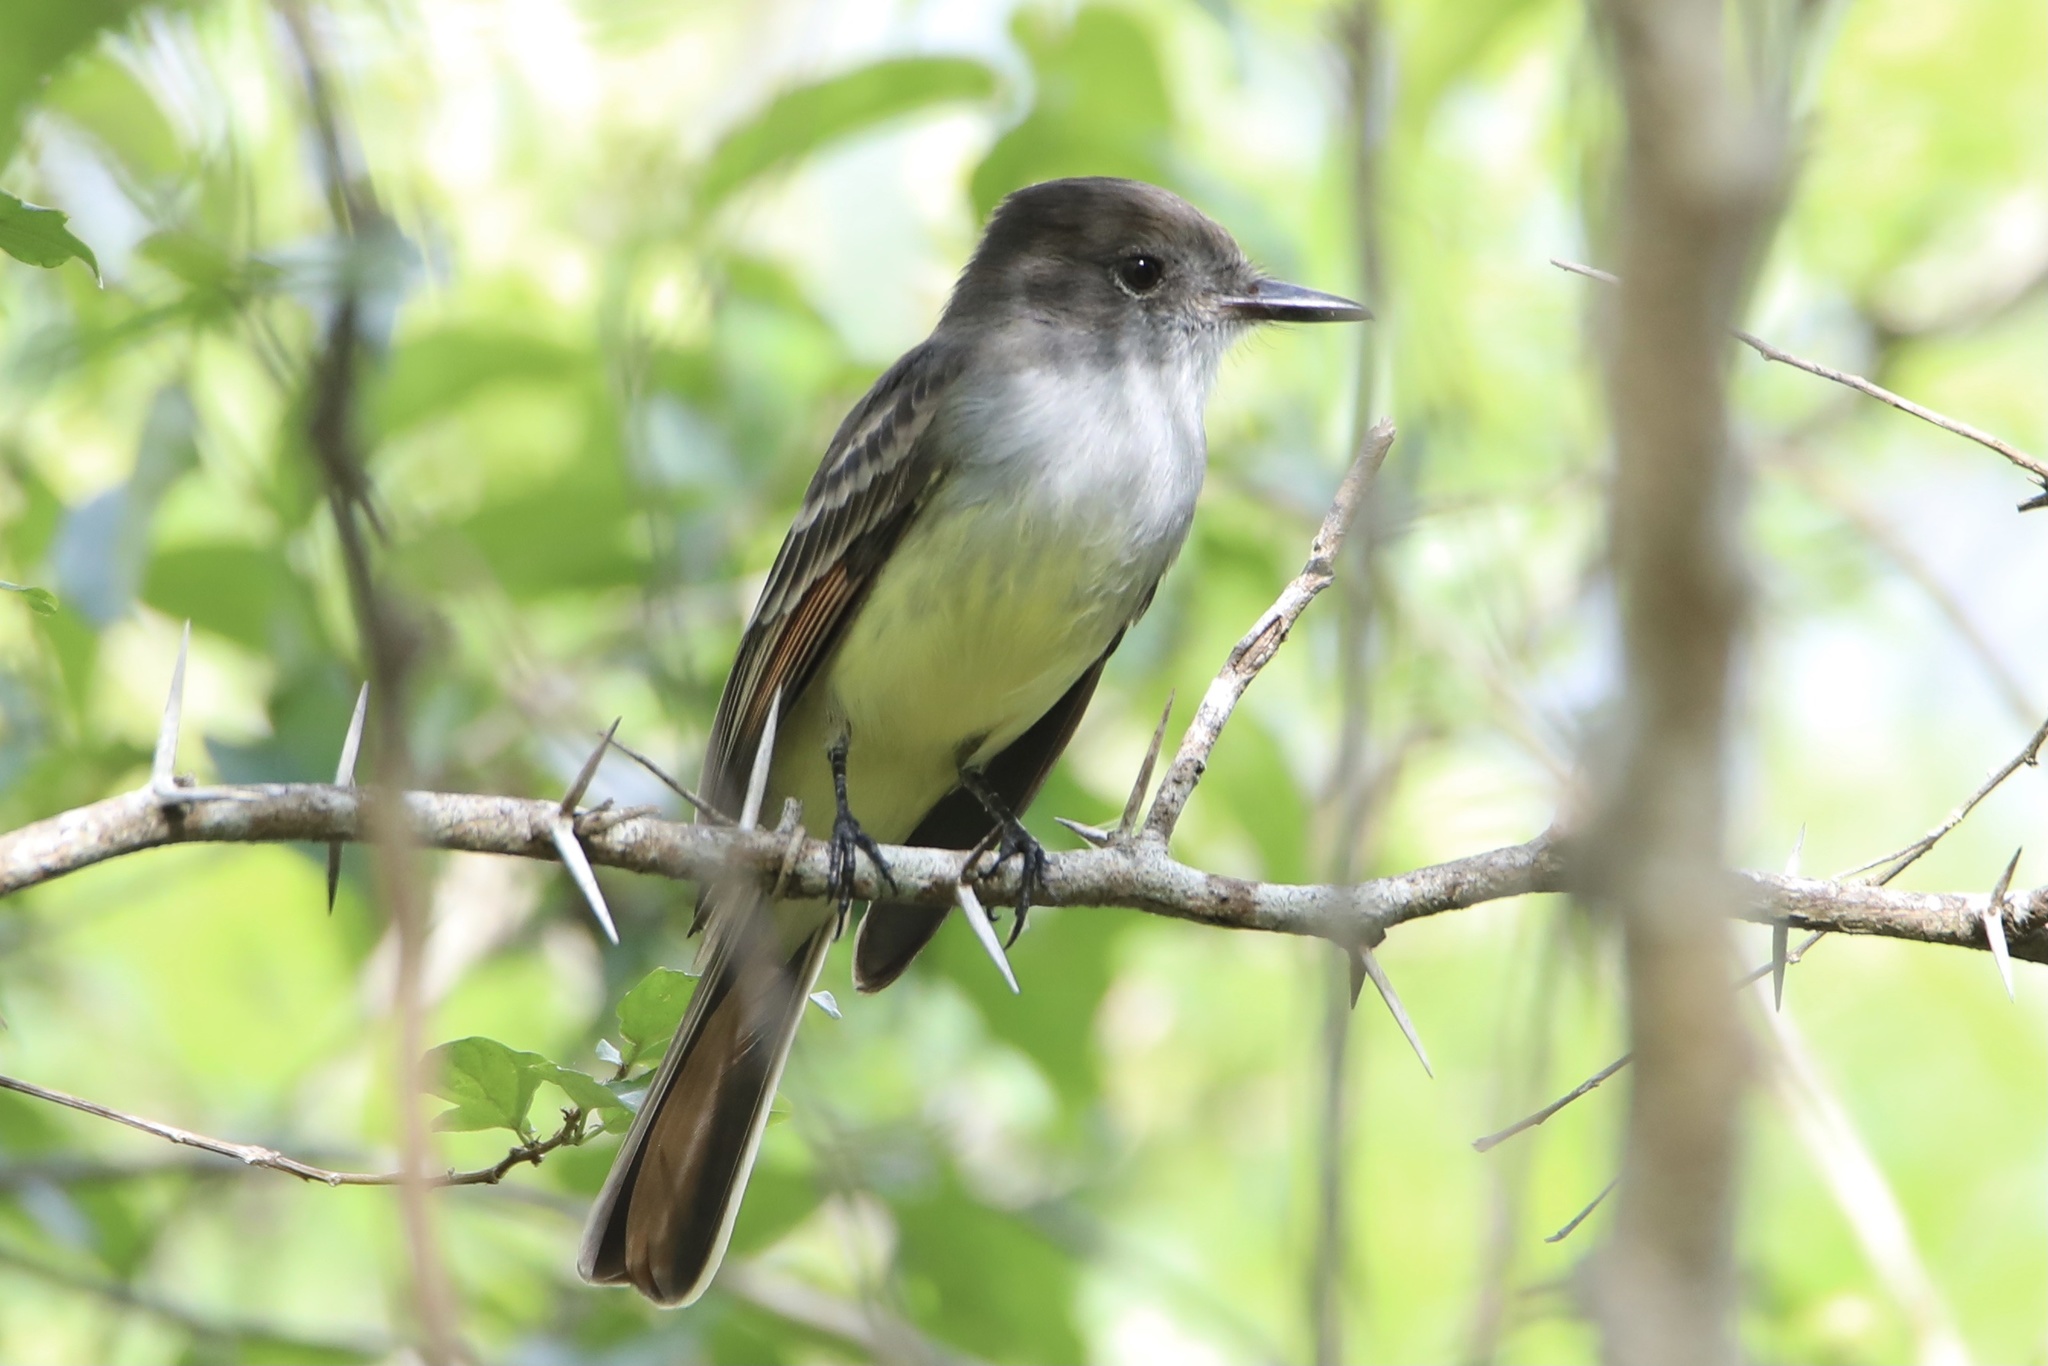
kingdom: Animalia
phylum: Chordata
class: Aves
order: Passeriformes
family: Tyrannidae
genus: Myiarchus
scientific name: Myiarchus stolidus
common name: Stolid flycatcher
